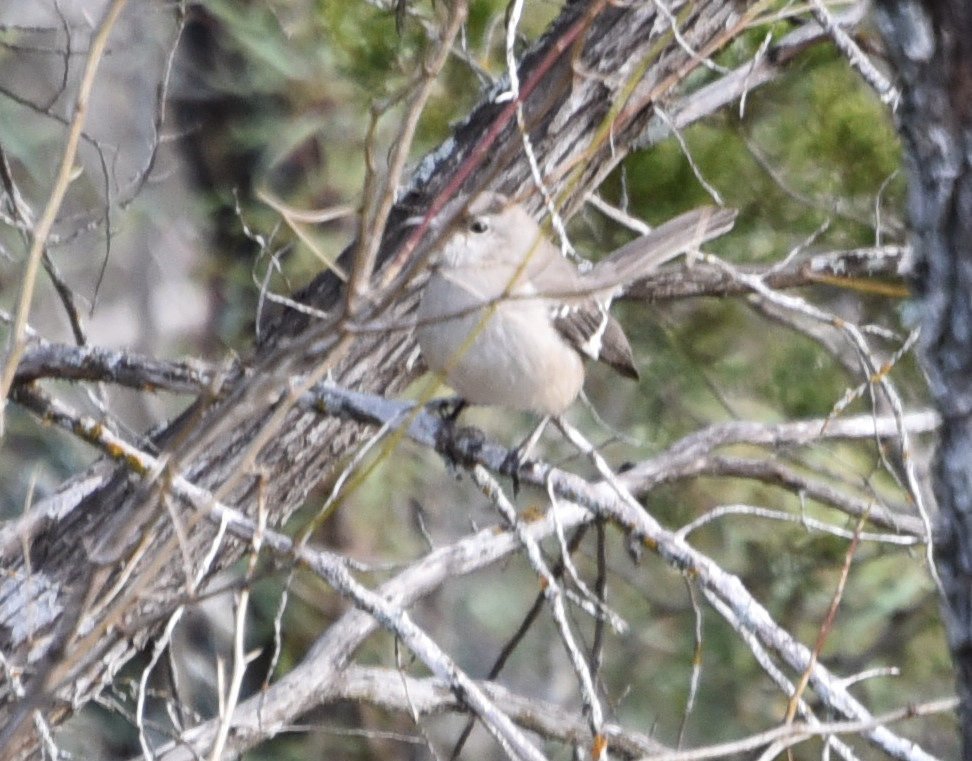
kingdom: Animalia
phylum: Chordata
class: Aves
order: Passeriformes
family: Mimidae
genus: Mimus
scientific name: Mimus polyglottos
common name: Northern mockingbird
